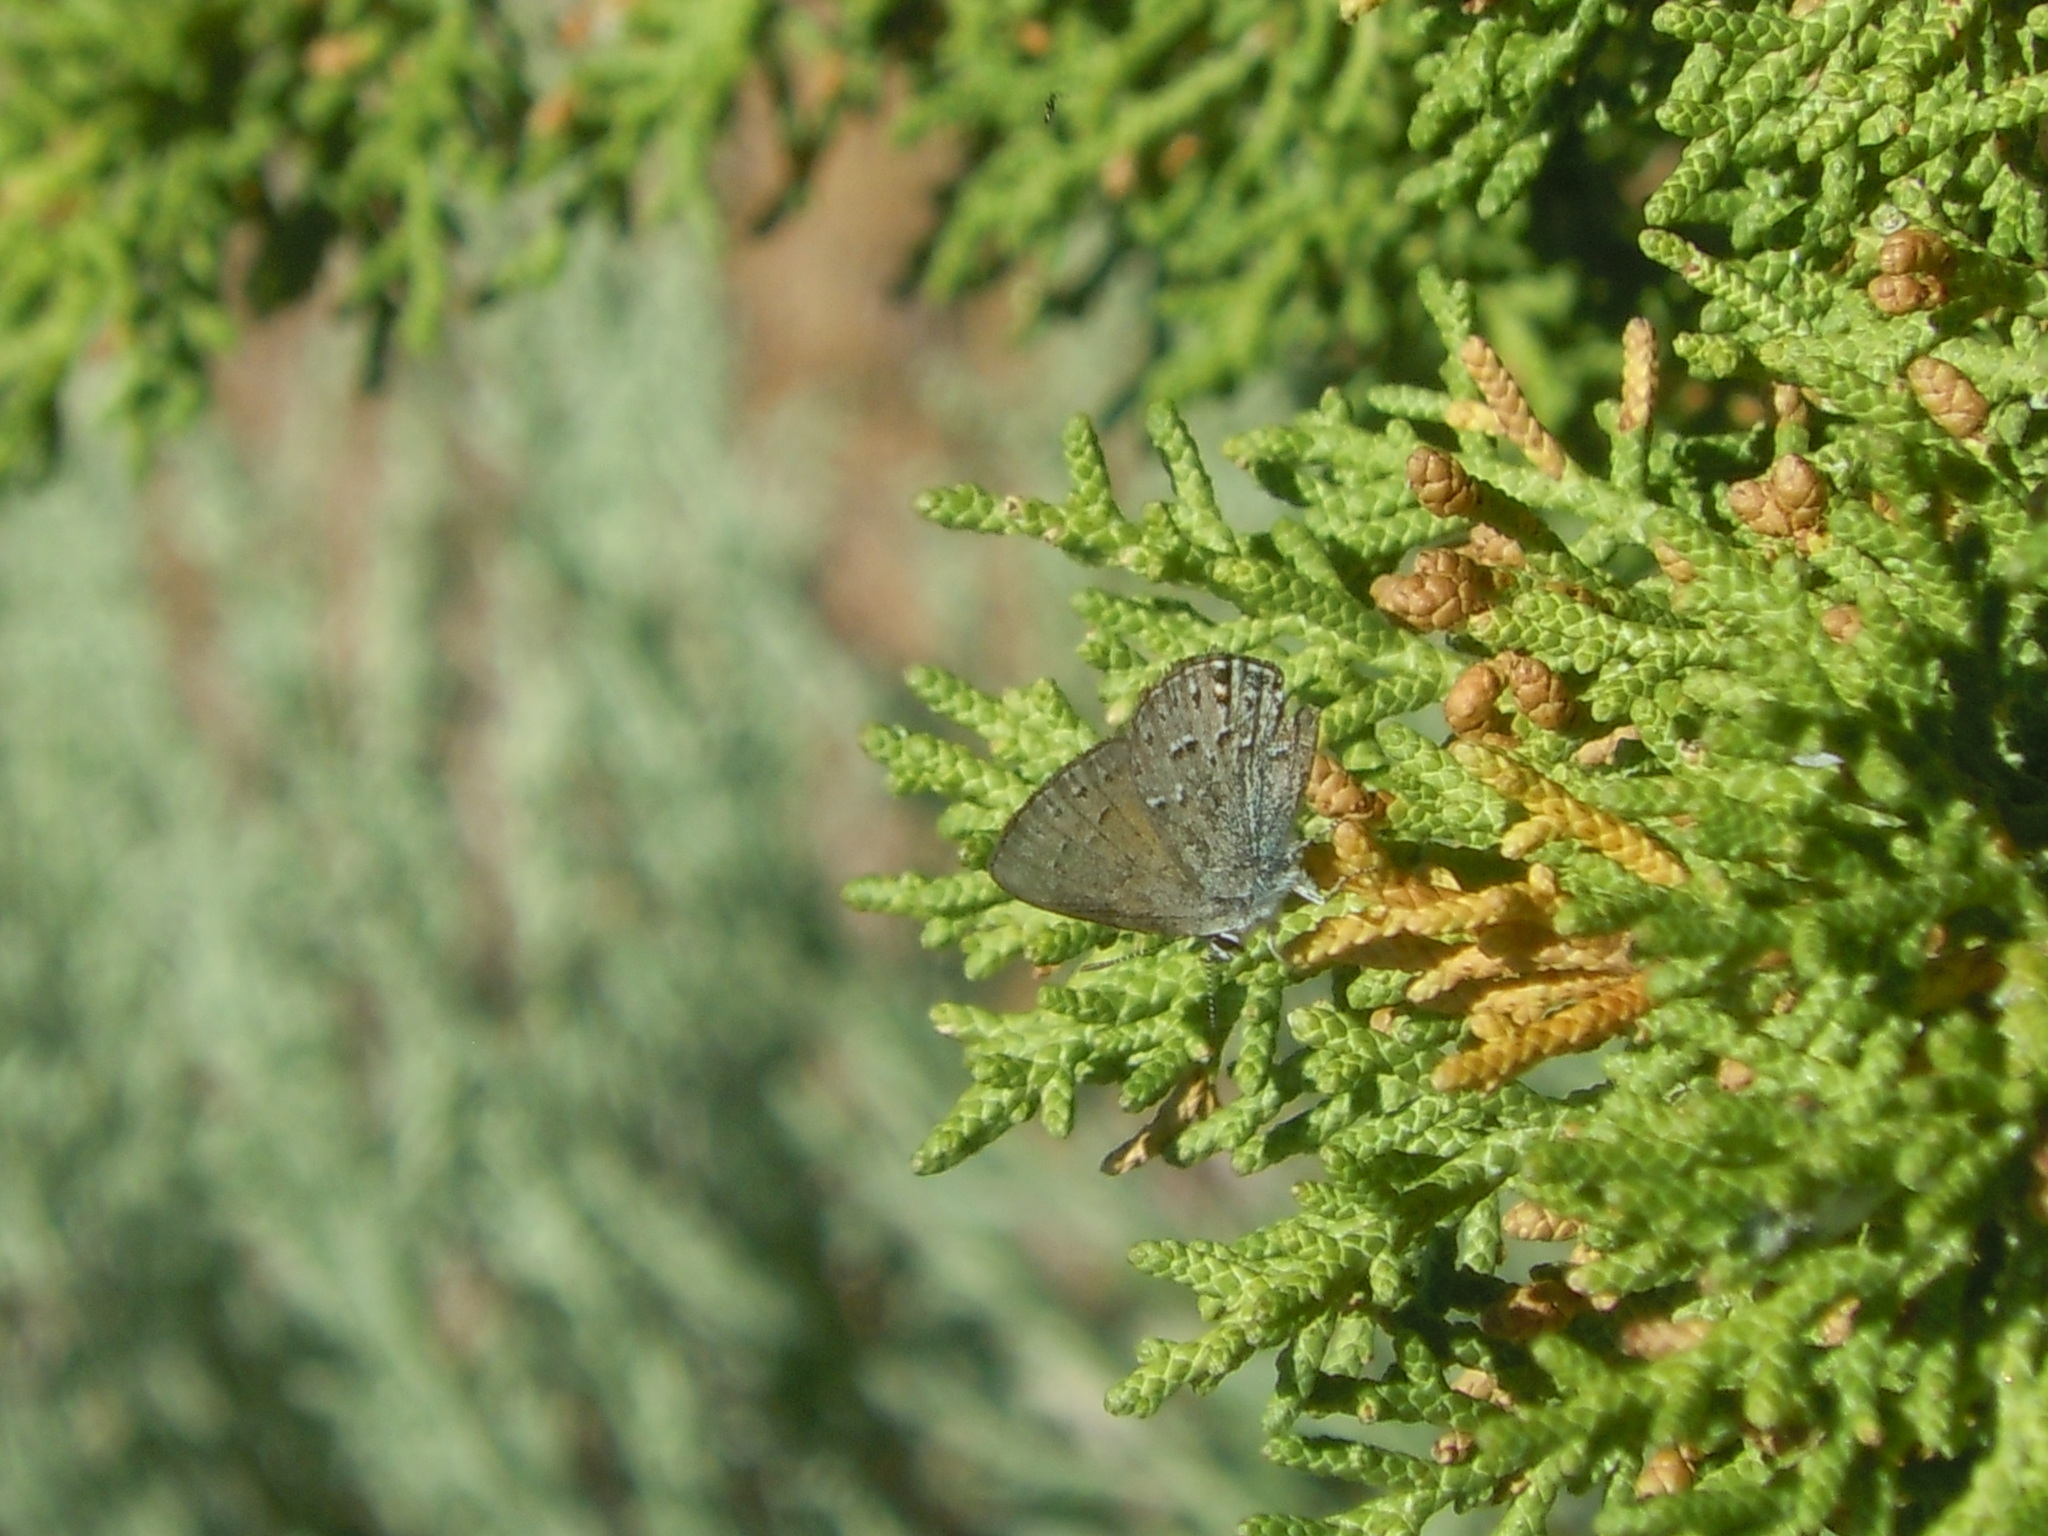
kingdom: Animalia
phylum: Arthropoda
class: Insecta
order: Lepidoptera
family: Lycaenidae
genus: Satyrium
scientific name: Satyrium behrii
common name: Behr's hairstreak
